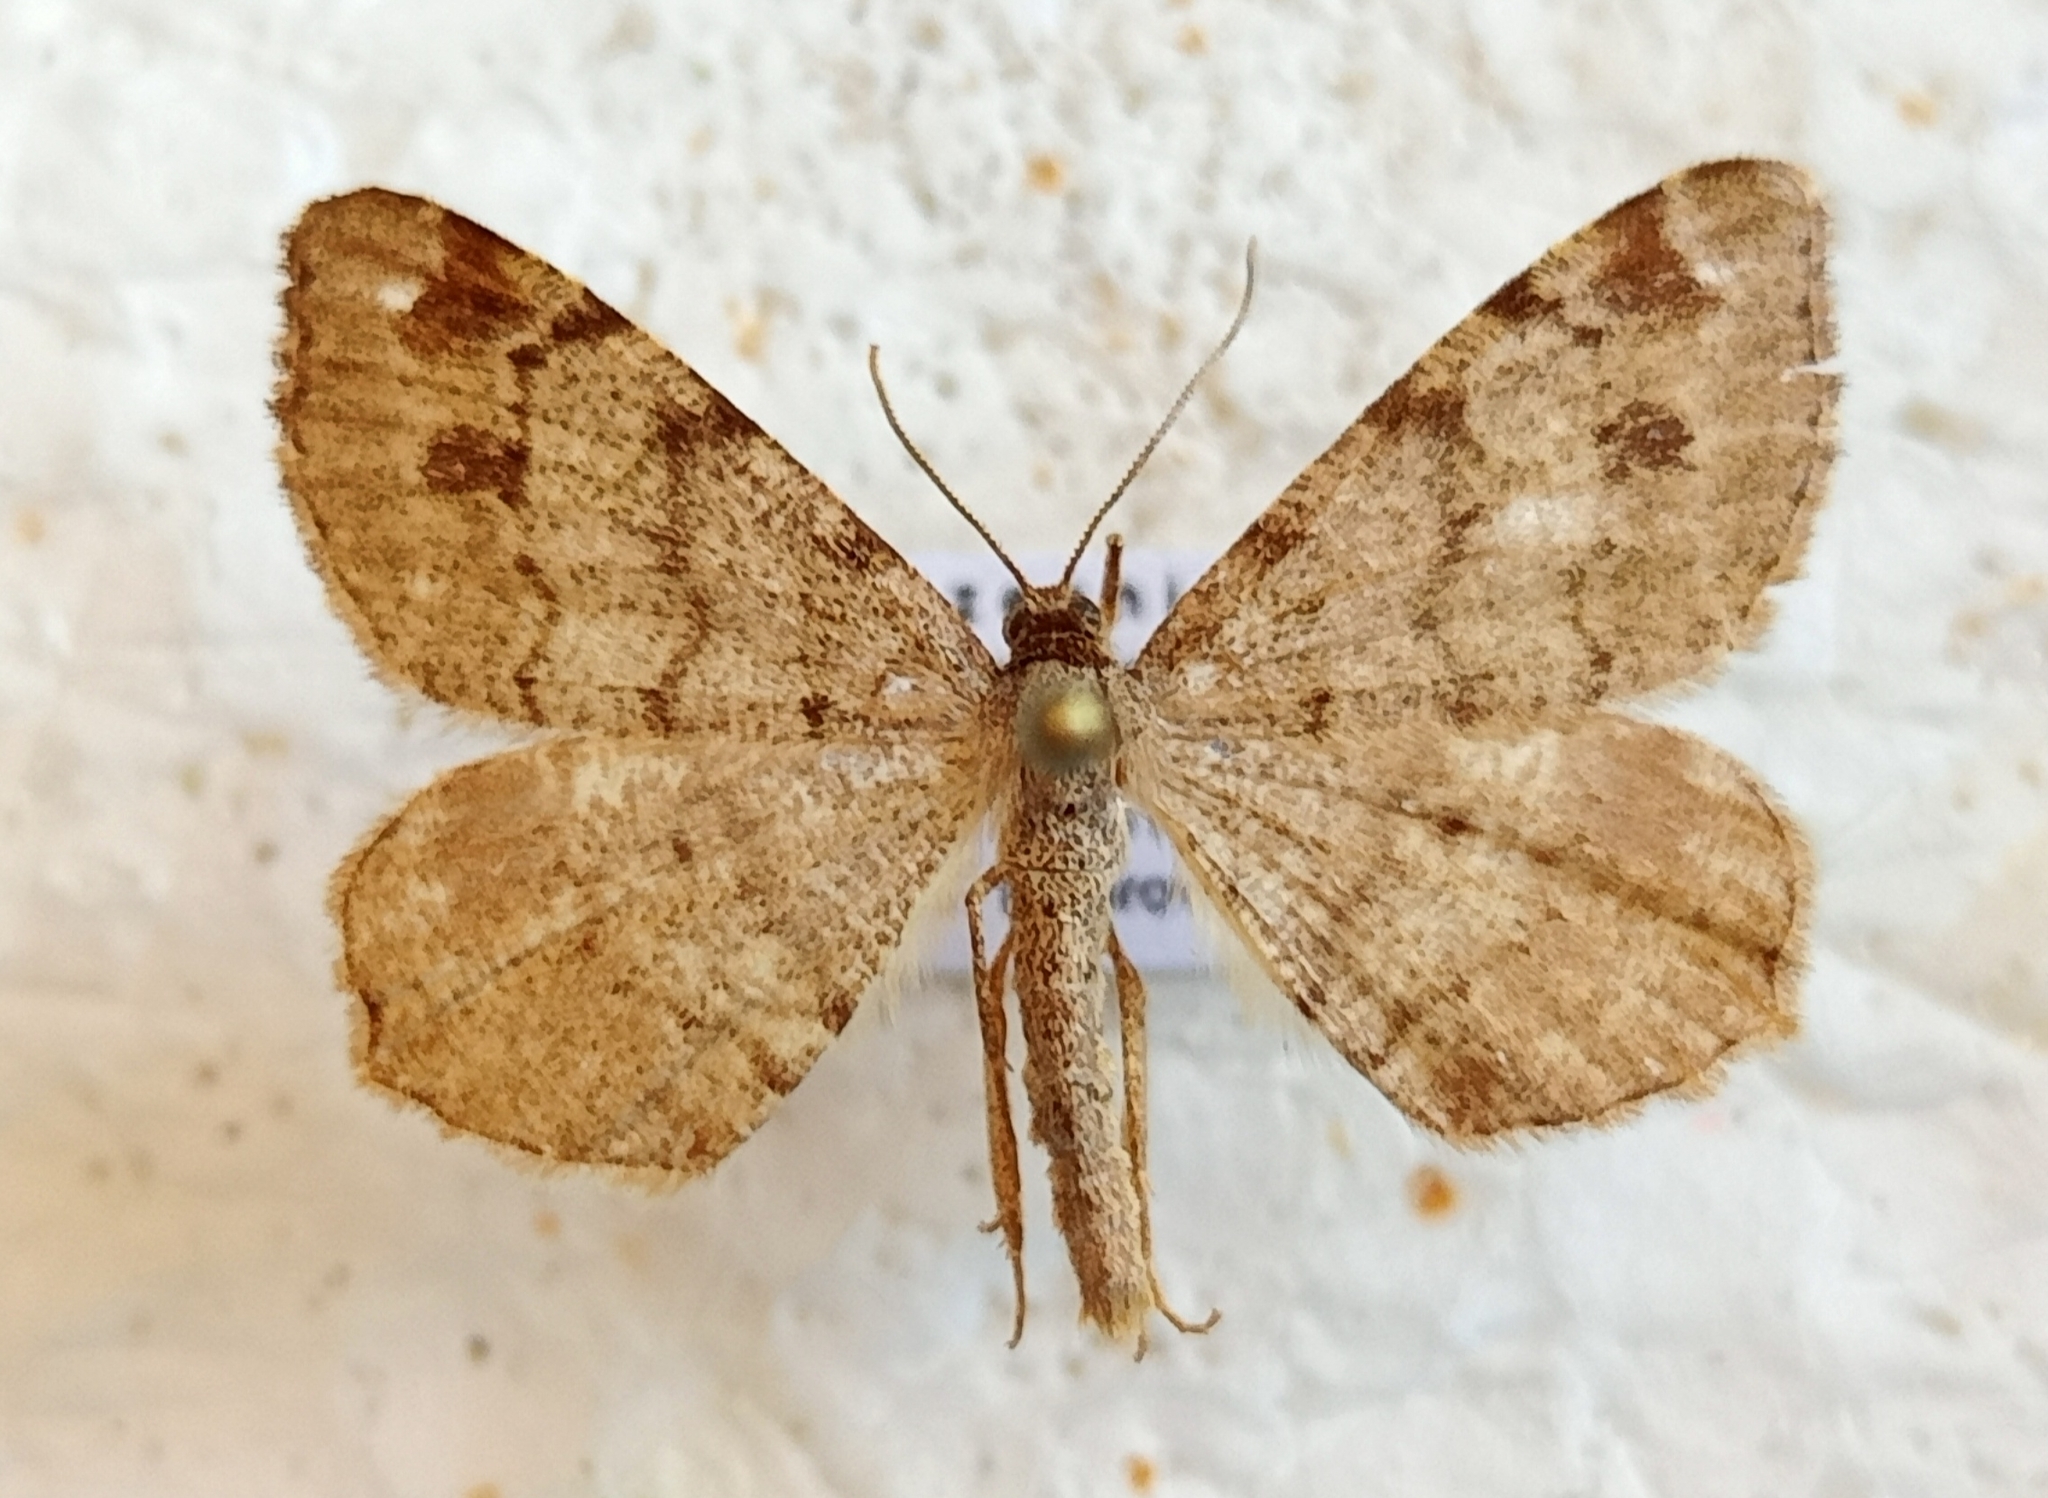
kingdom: Animalia
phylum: Arthropoda
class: Insecta
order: Lepidoptera
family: Geometridae
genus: Macaria
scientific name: Macaria signaria
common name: Dusky peacock
